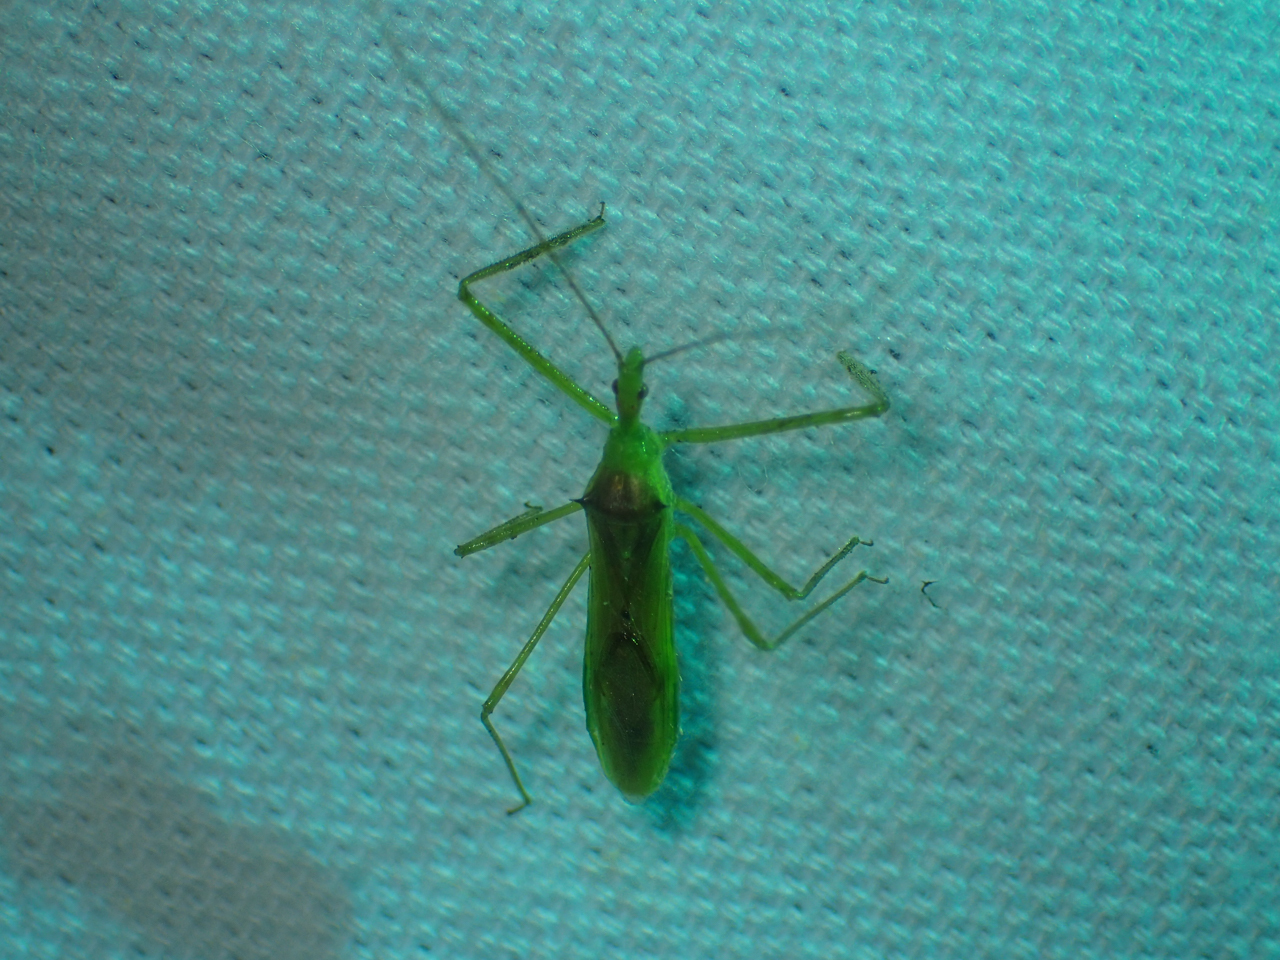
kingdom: Animalia
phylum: Arthropoda
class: Insecta
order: Hemiptera
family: Reduviidae
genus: Zelus
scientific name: Zelus luridus
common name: Pale green assassin bug
